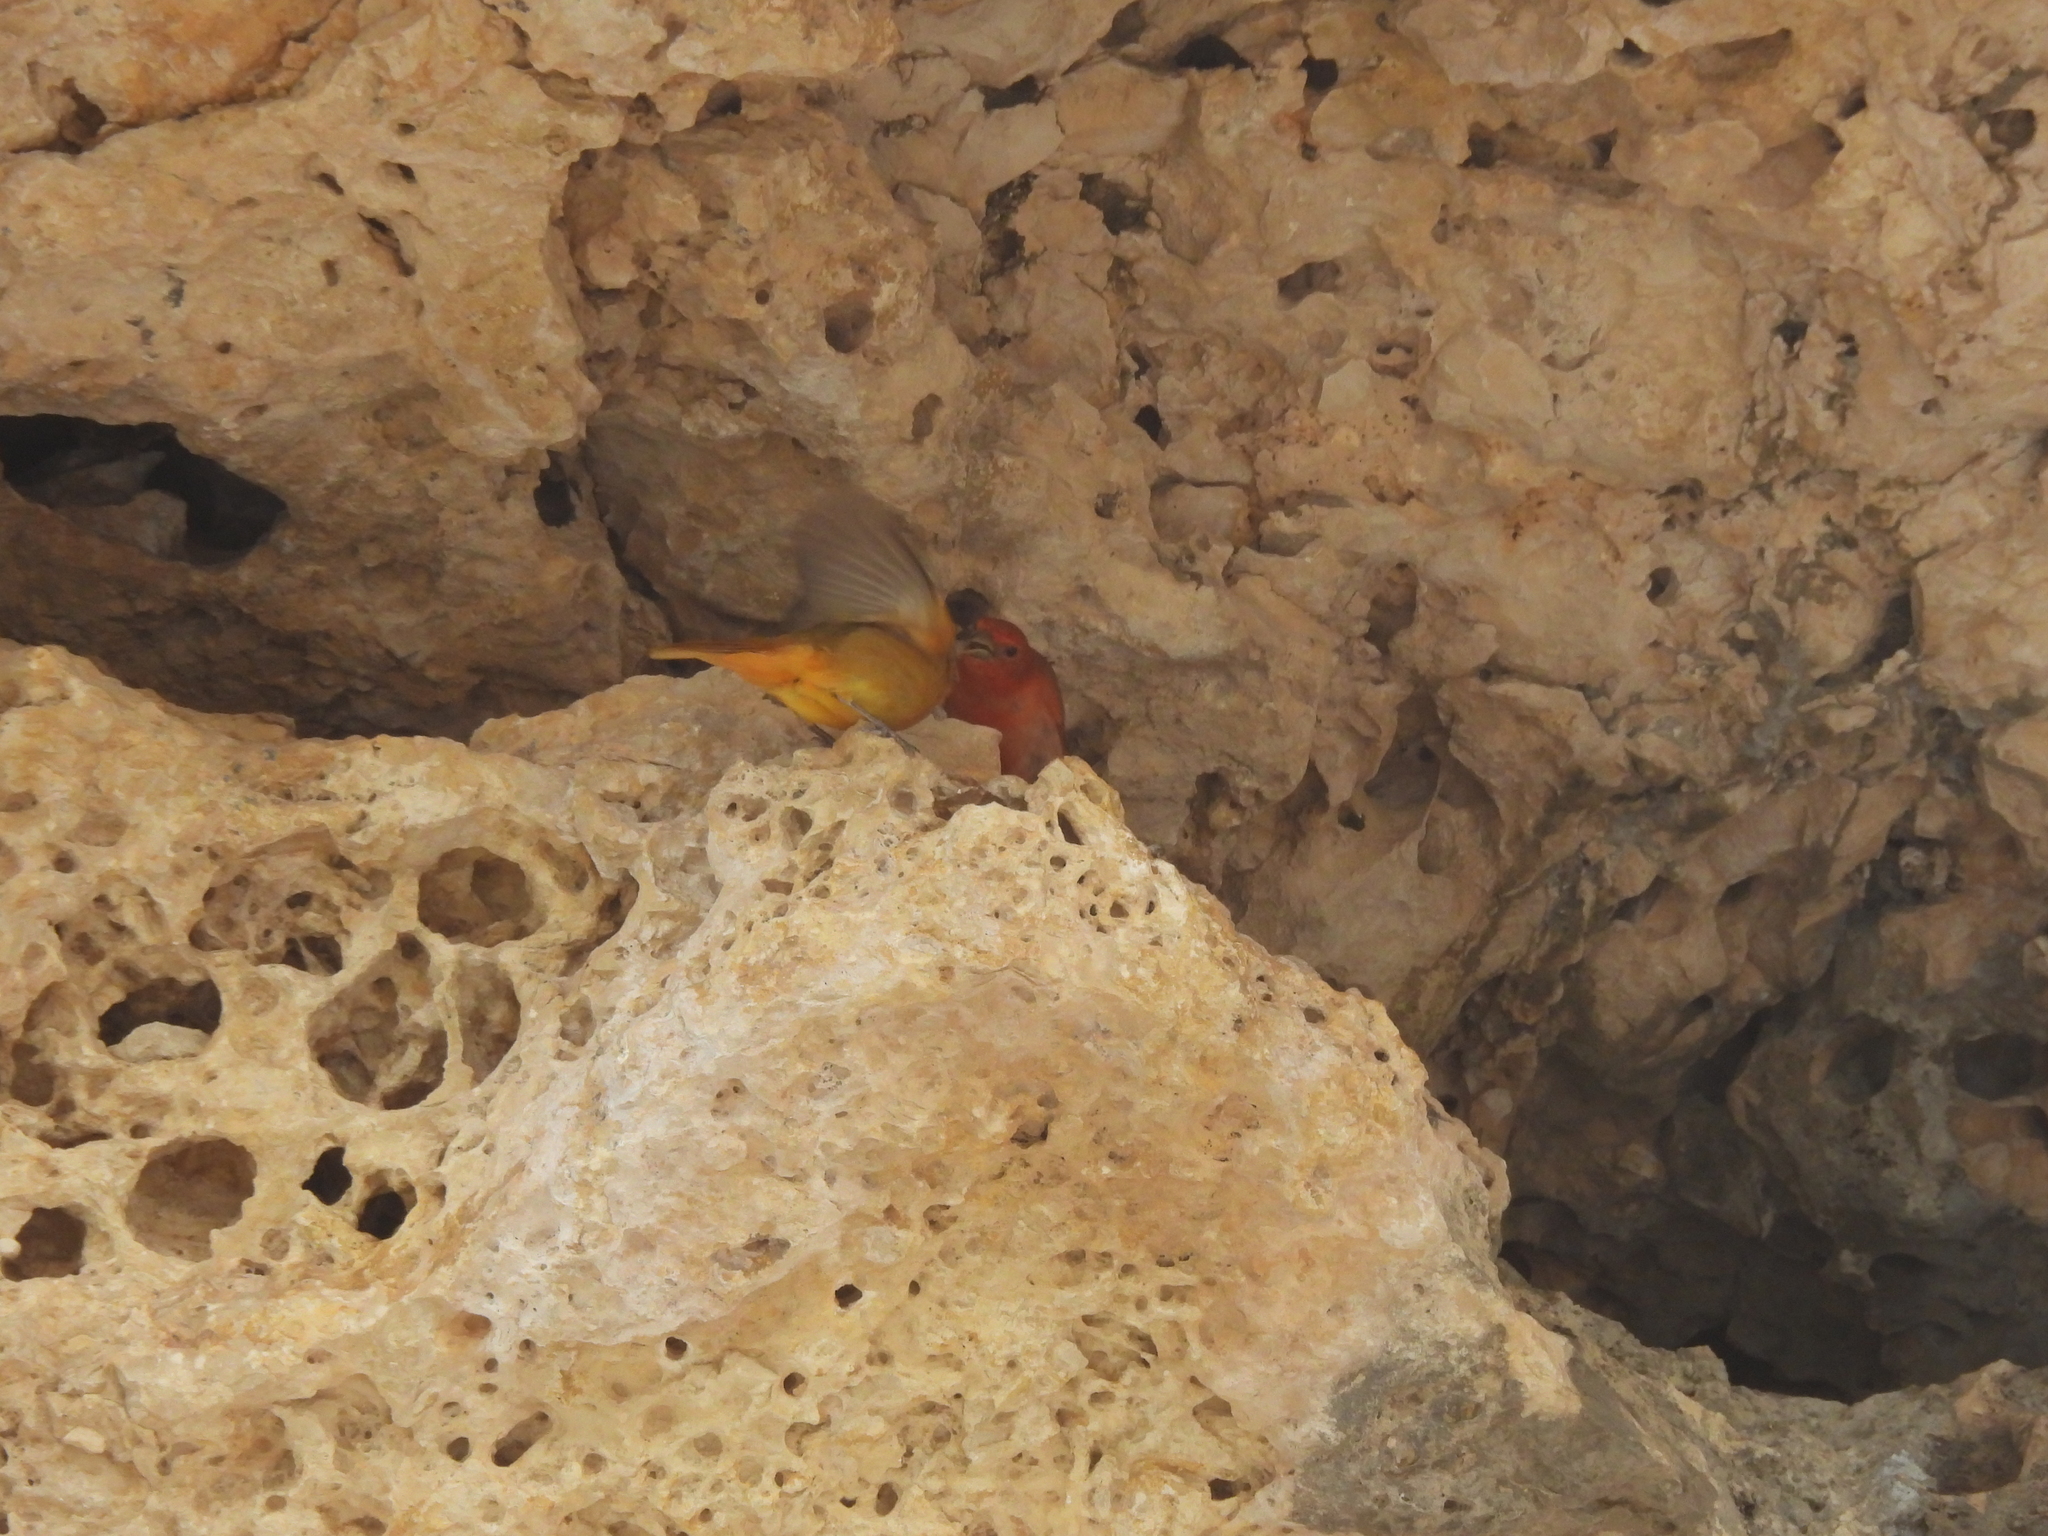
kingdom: Animalia
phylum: Chordata
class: Aves
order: Passeriformes
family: Cardinalidae
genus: Piranga
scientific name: Piranga rubra
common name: Summer tanager
